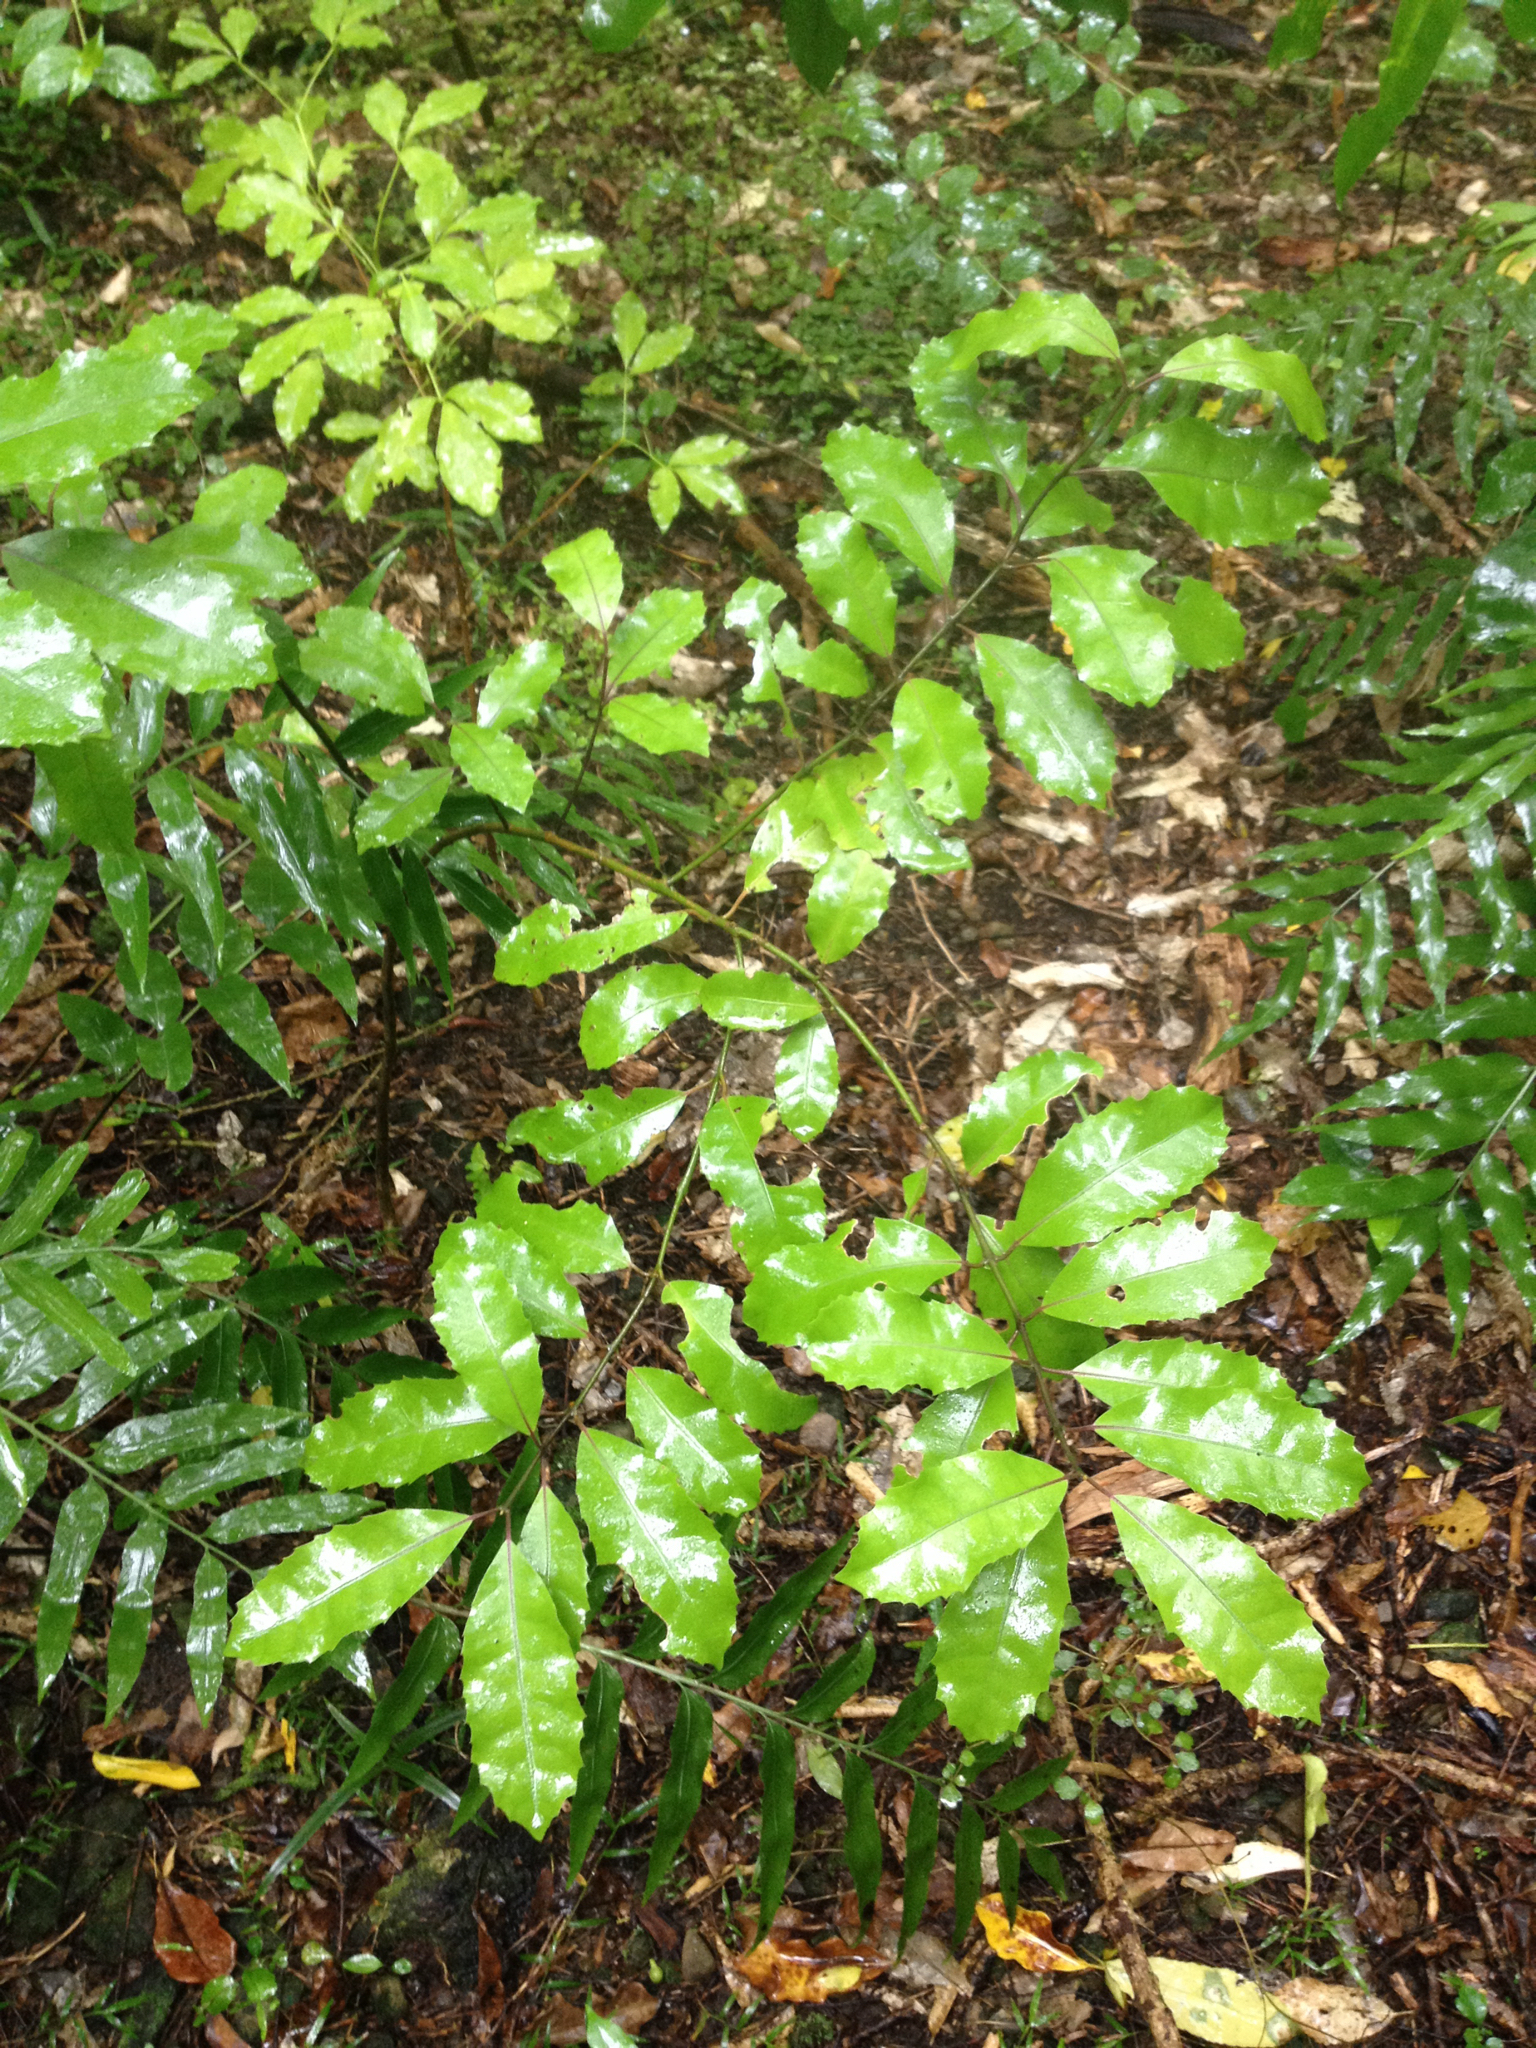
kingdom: Plantae
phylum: Tracheophyta
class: Magnoliopsida
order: Laurales
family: Monimiaceae
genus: Hedycarya
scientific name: Hedycarya arborea
